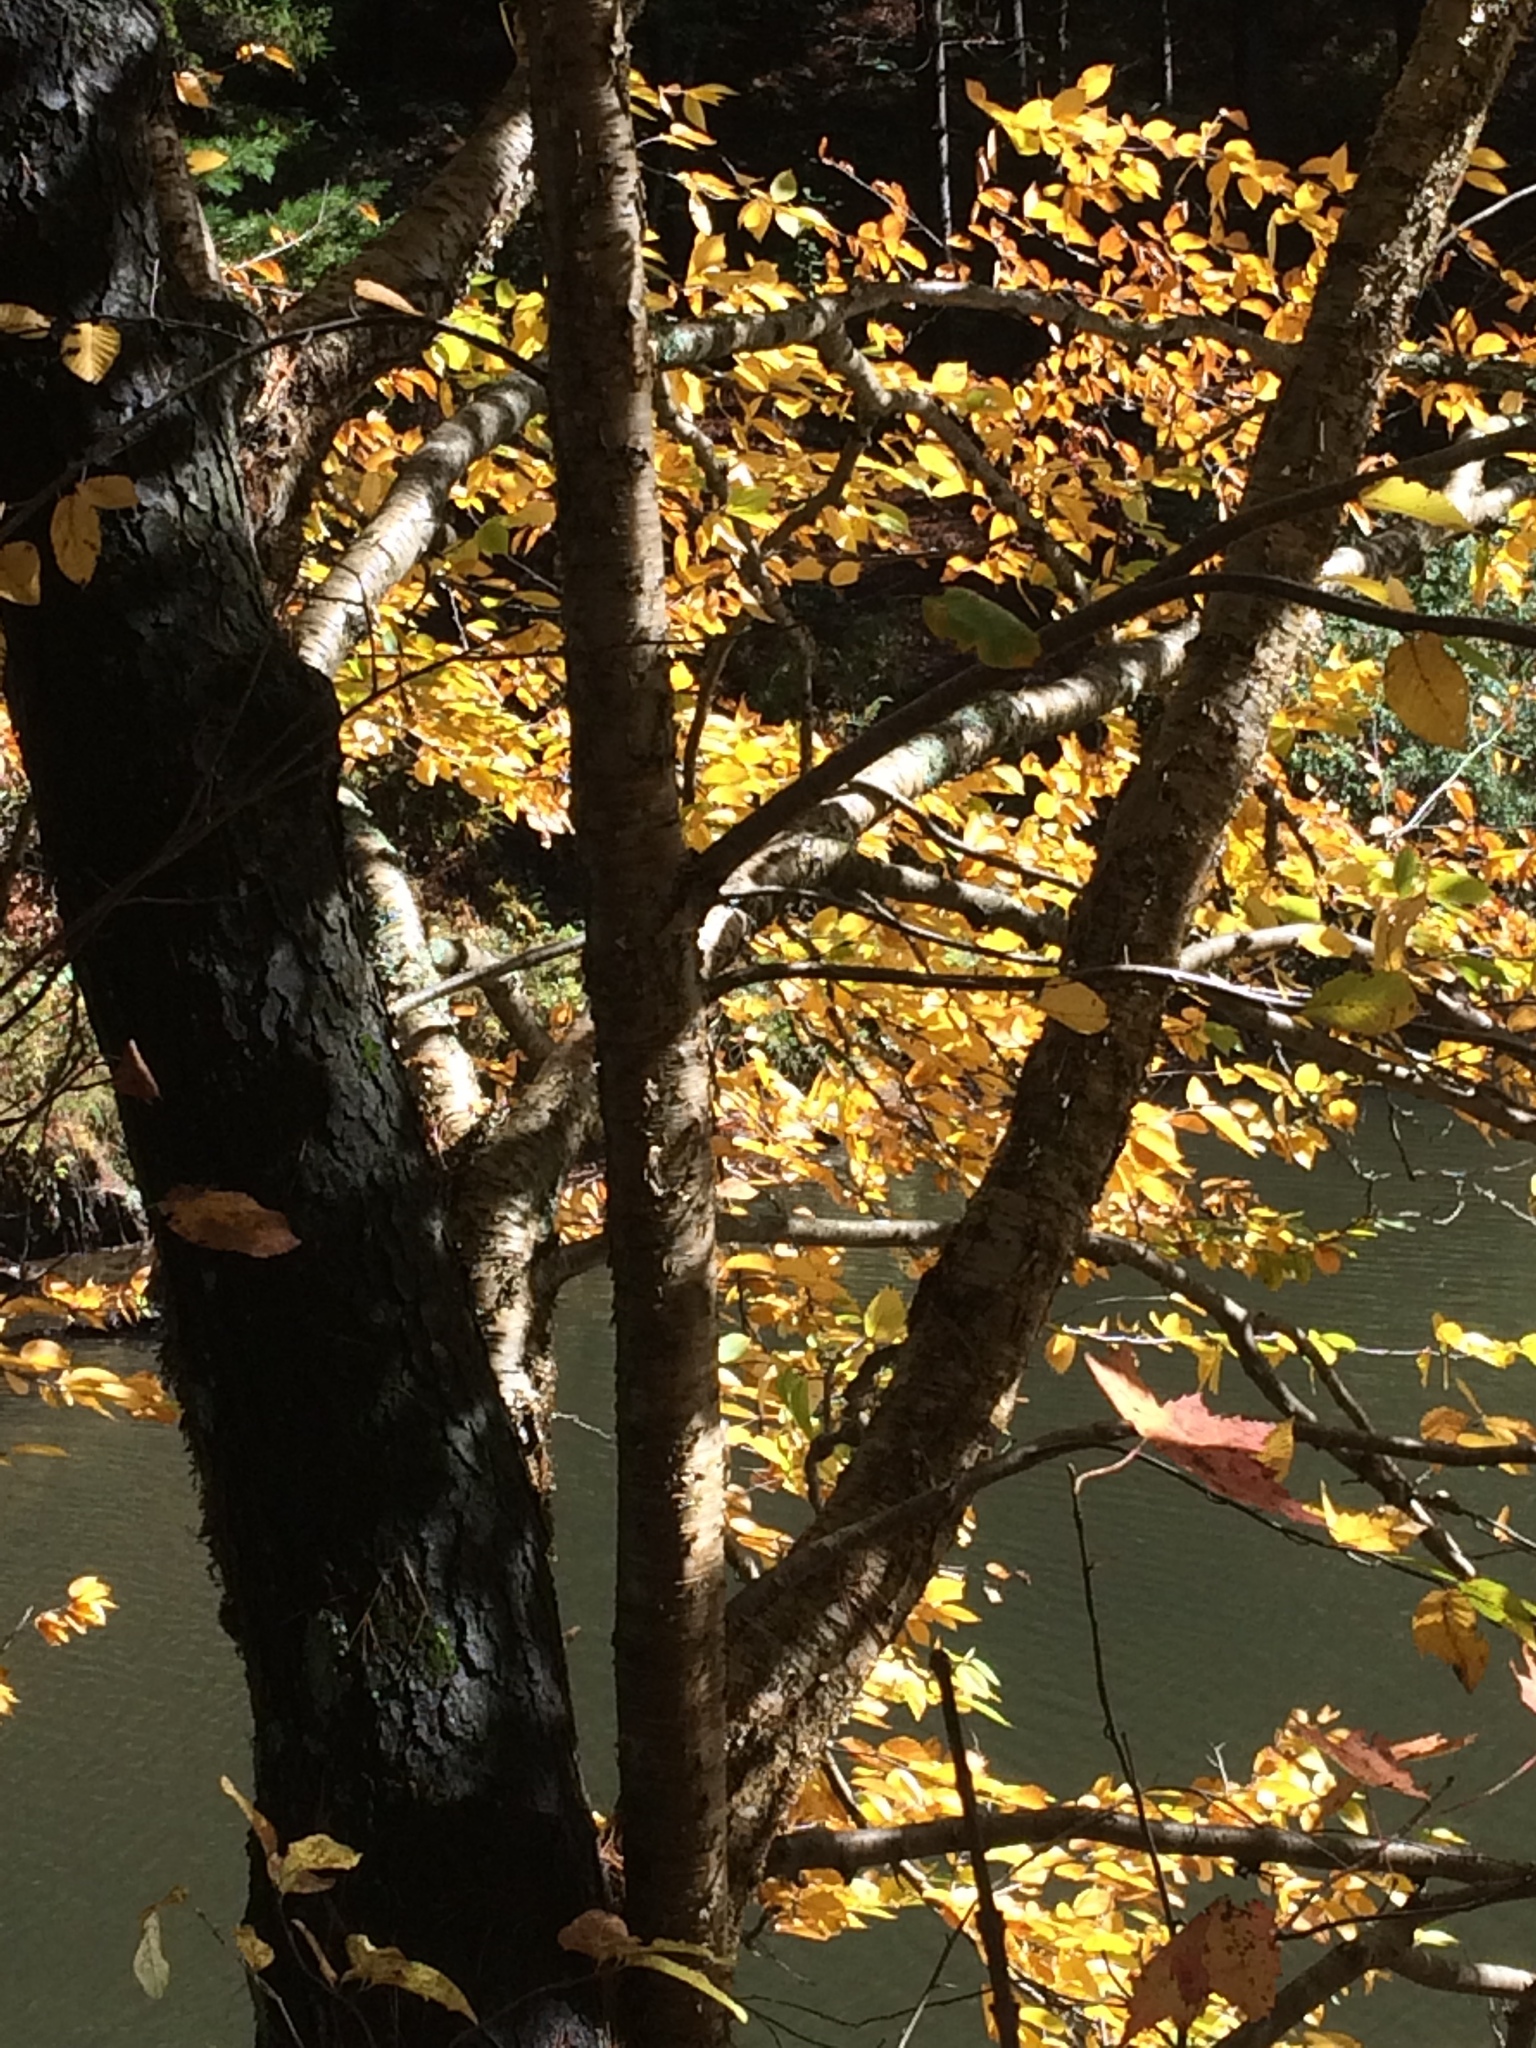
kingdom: Plantae
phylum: Tracheophyta
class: Magnoliopsida
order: Fagales
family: Betulaceae
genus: Betula
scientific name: Betula alleghaniensis
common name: Yellow birch
